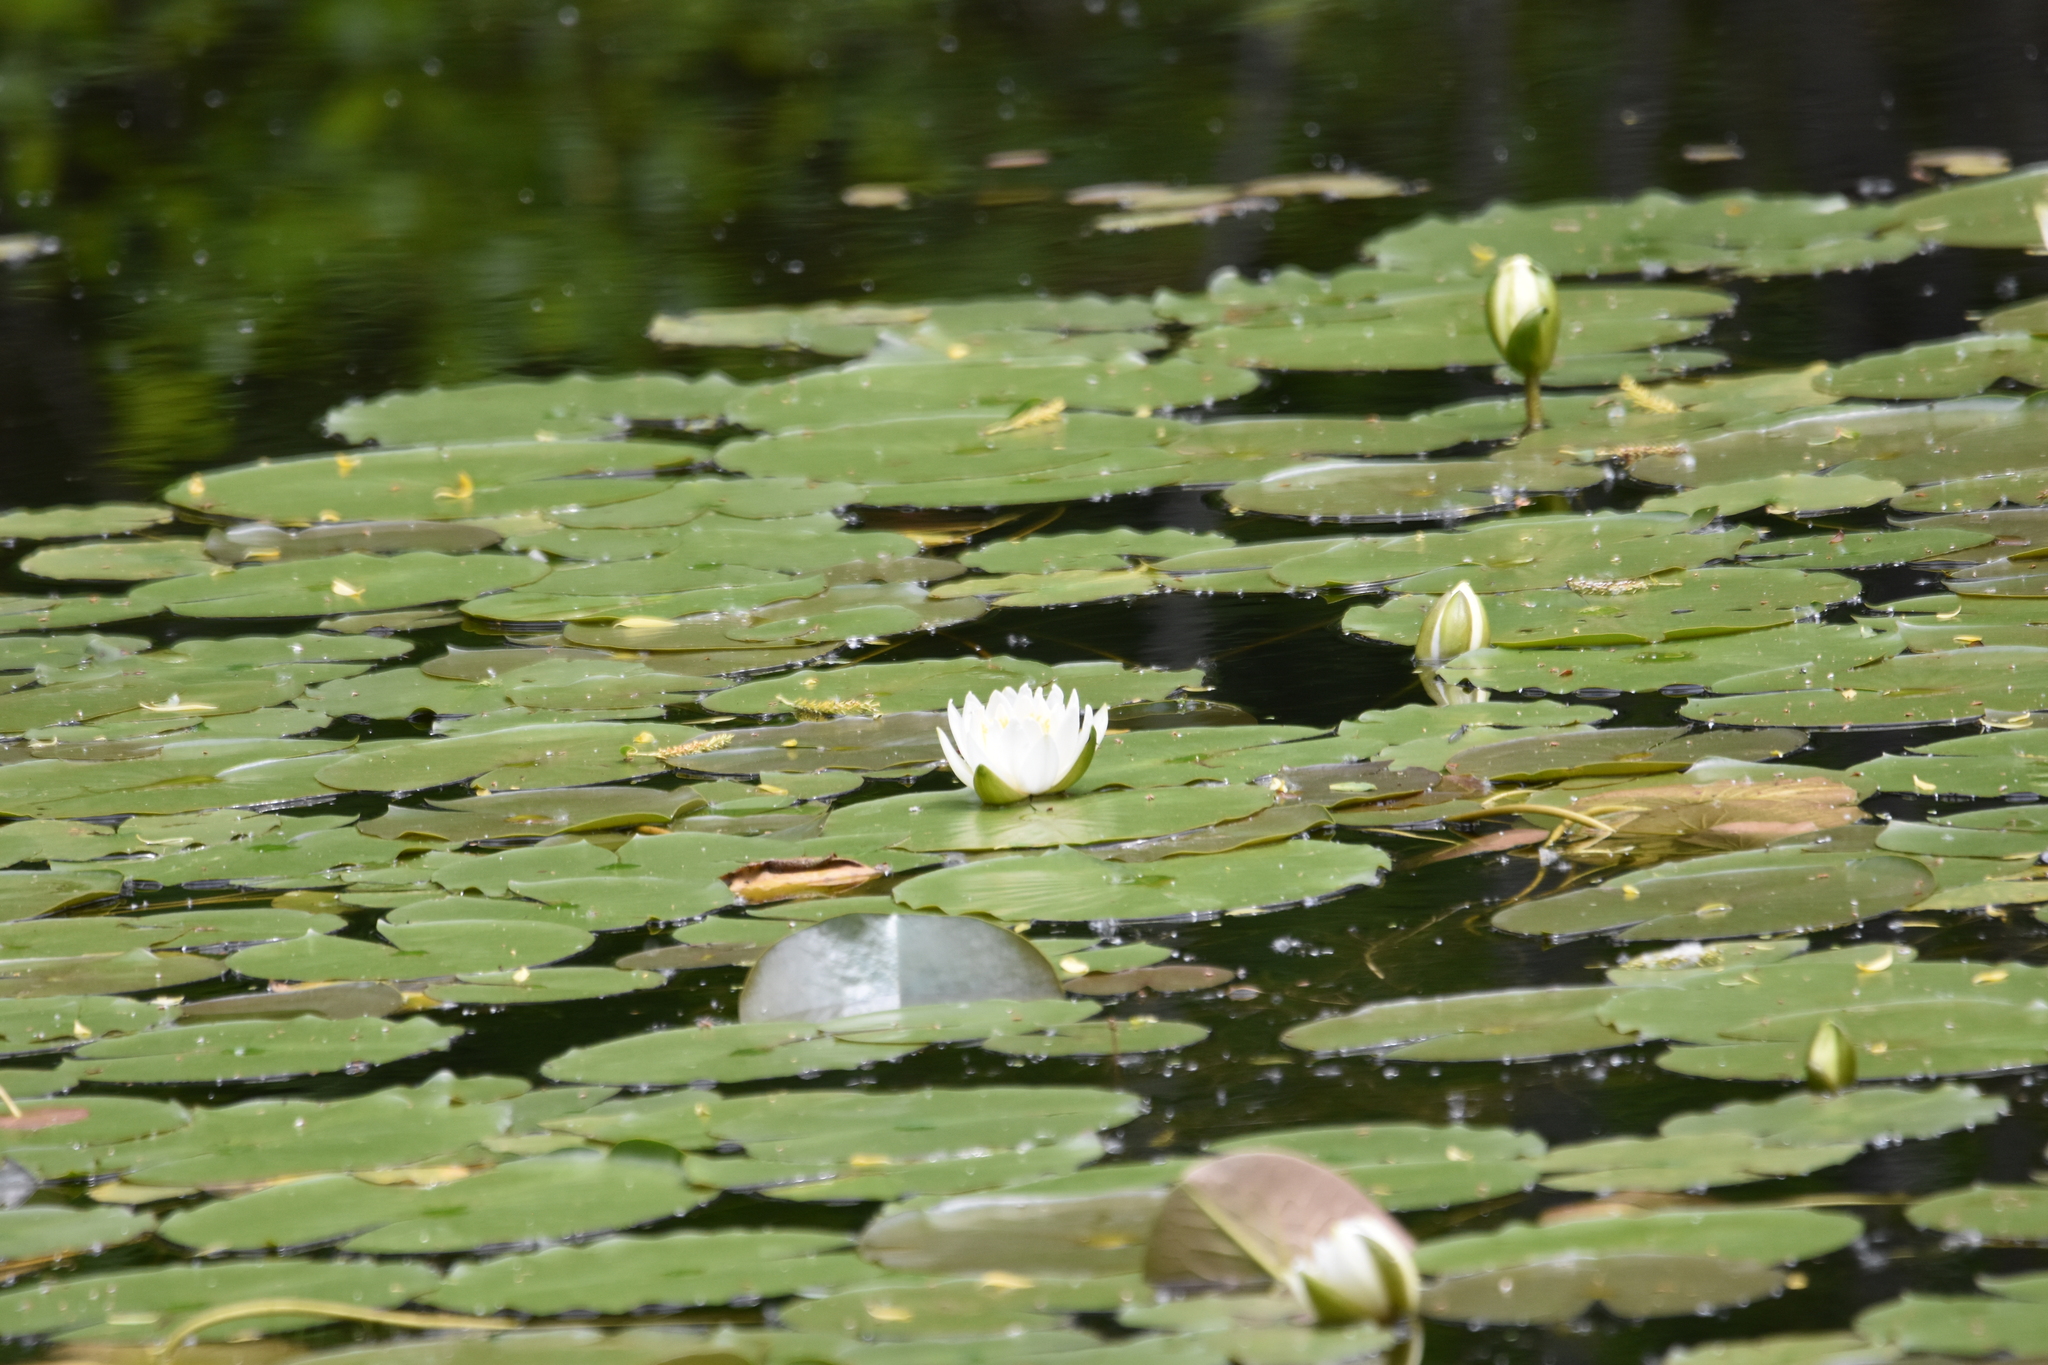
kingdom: Plantae
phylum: Tracheophyta
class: Magnoliopsida
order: Nymphaeales
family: Nymphaeaceae
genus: Nymphaea
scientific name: Nymphaea odorata
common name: Fragrant water-lily
